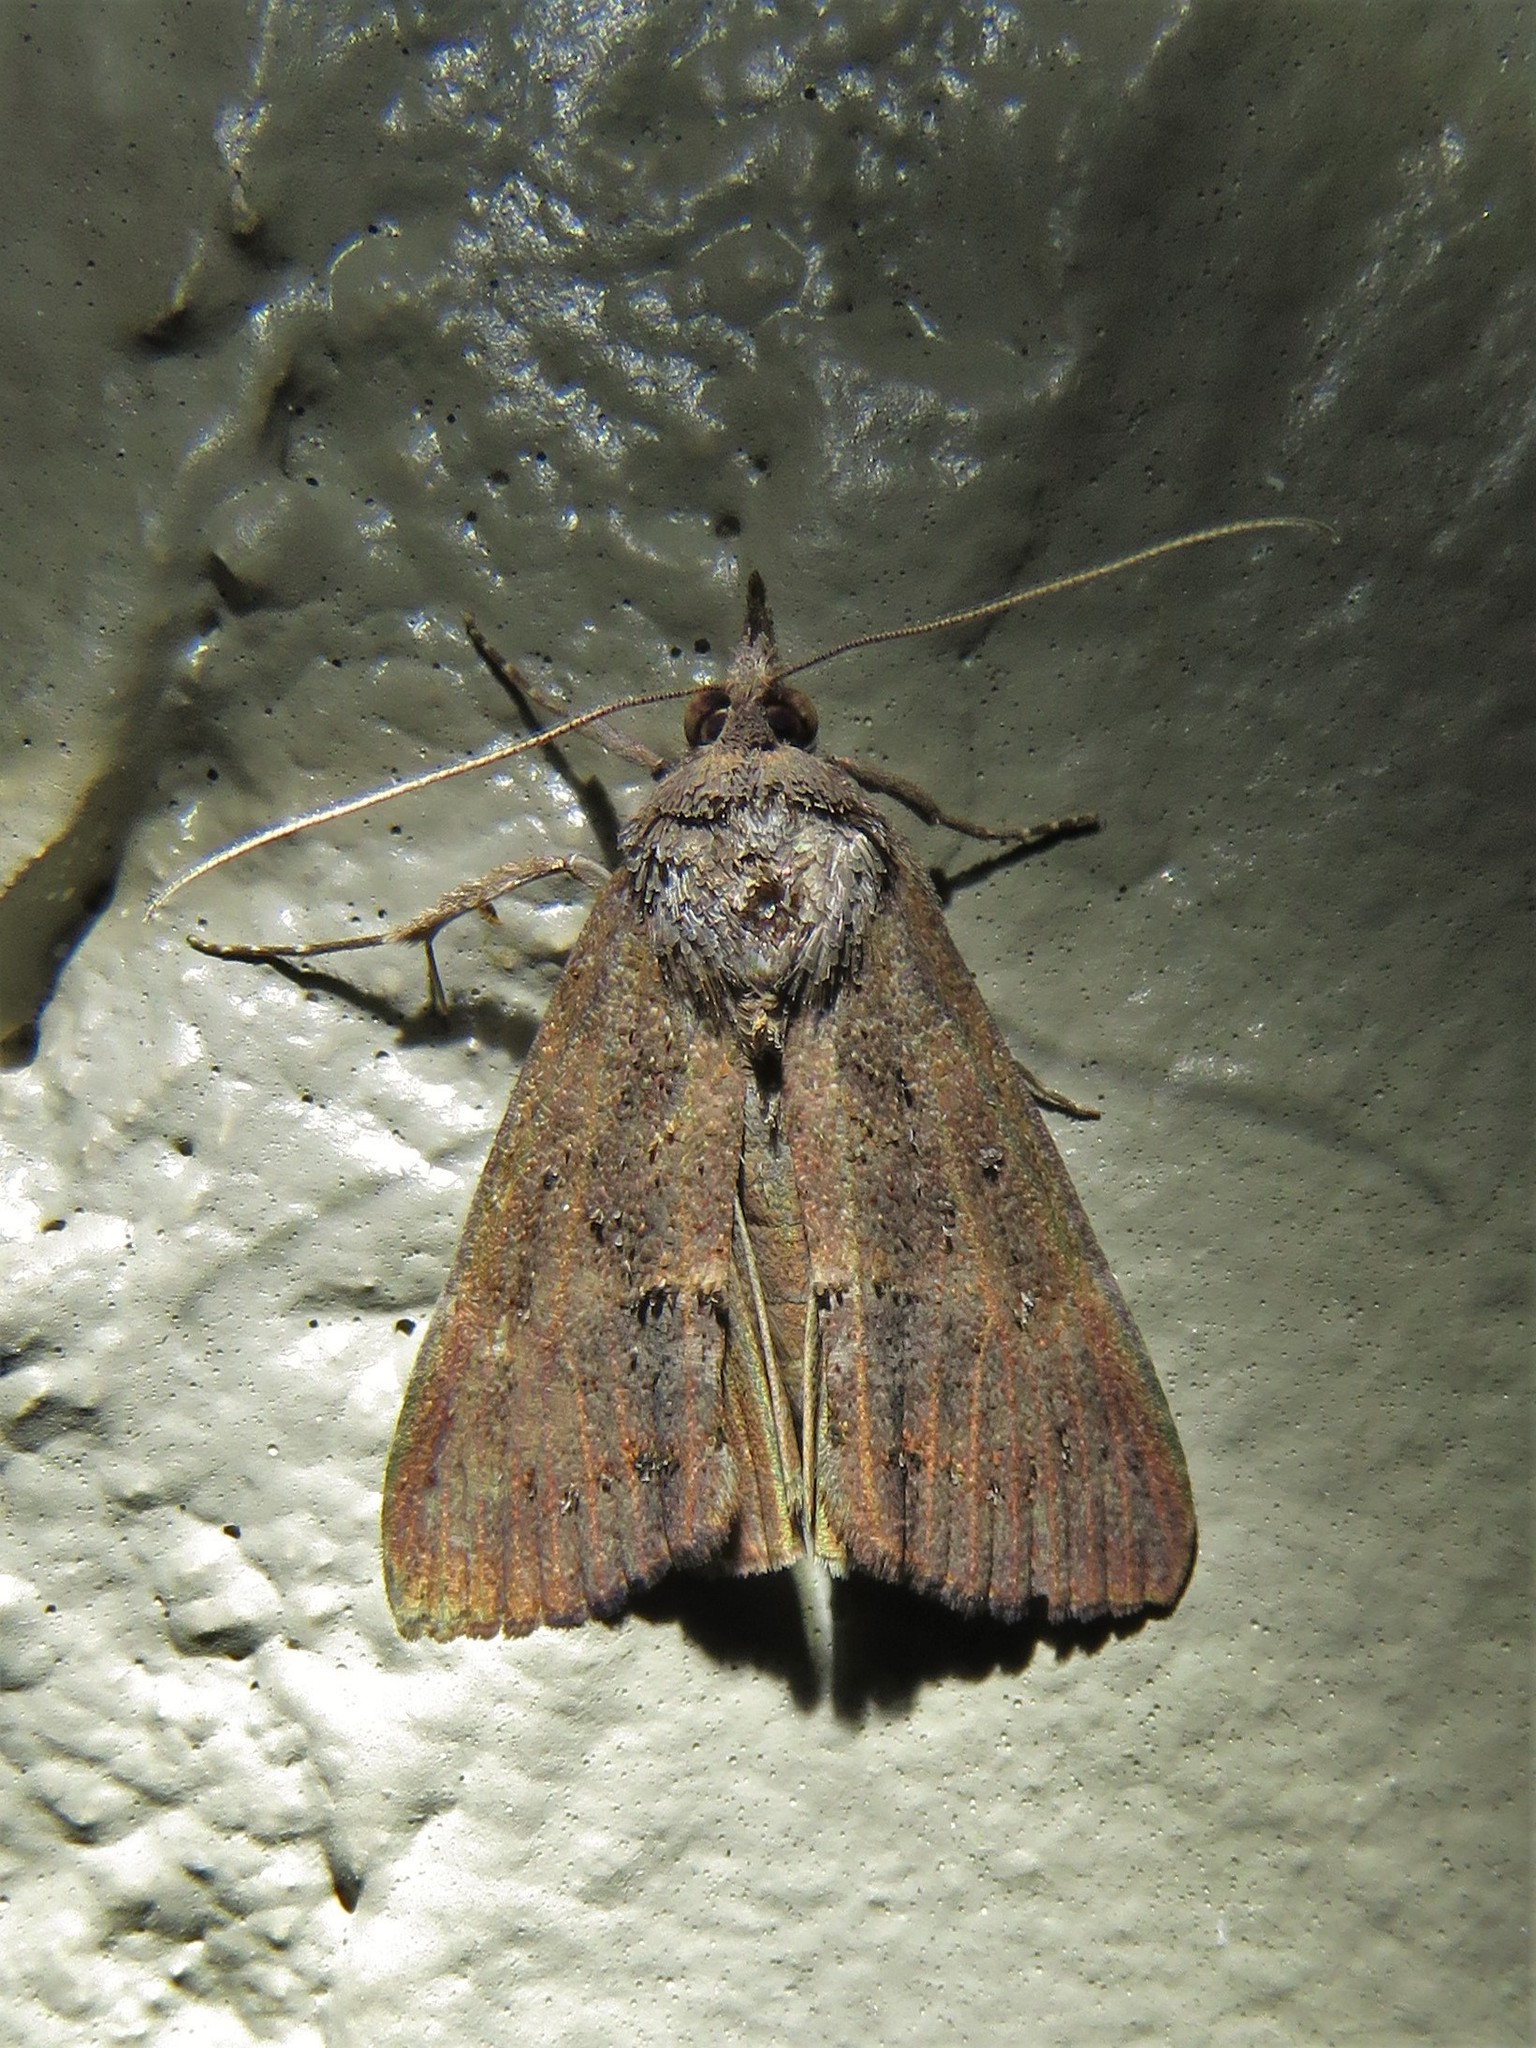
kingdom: Animalia
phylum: Arthropoda
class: Insecta
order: Lepidoptera
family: Erebidae
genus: Hypena
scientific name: Hypena scabra
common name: Green cloverworm
